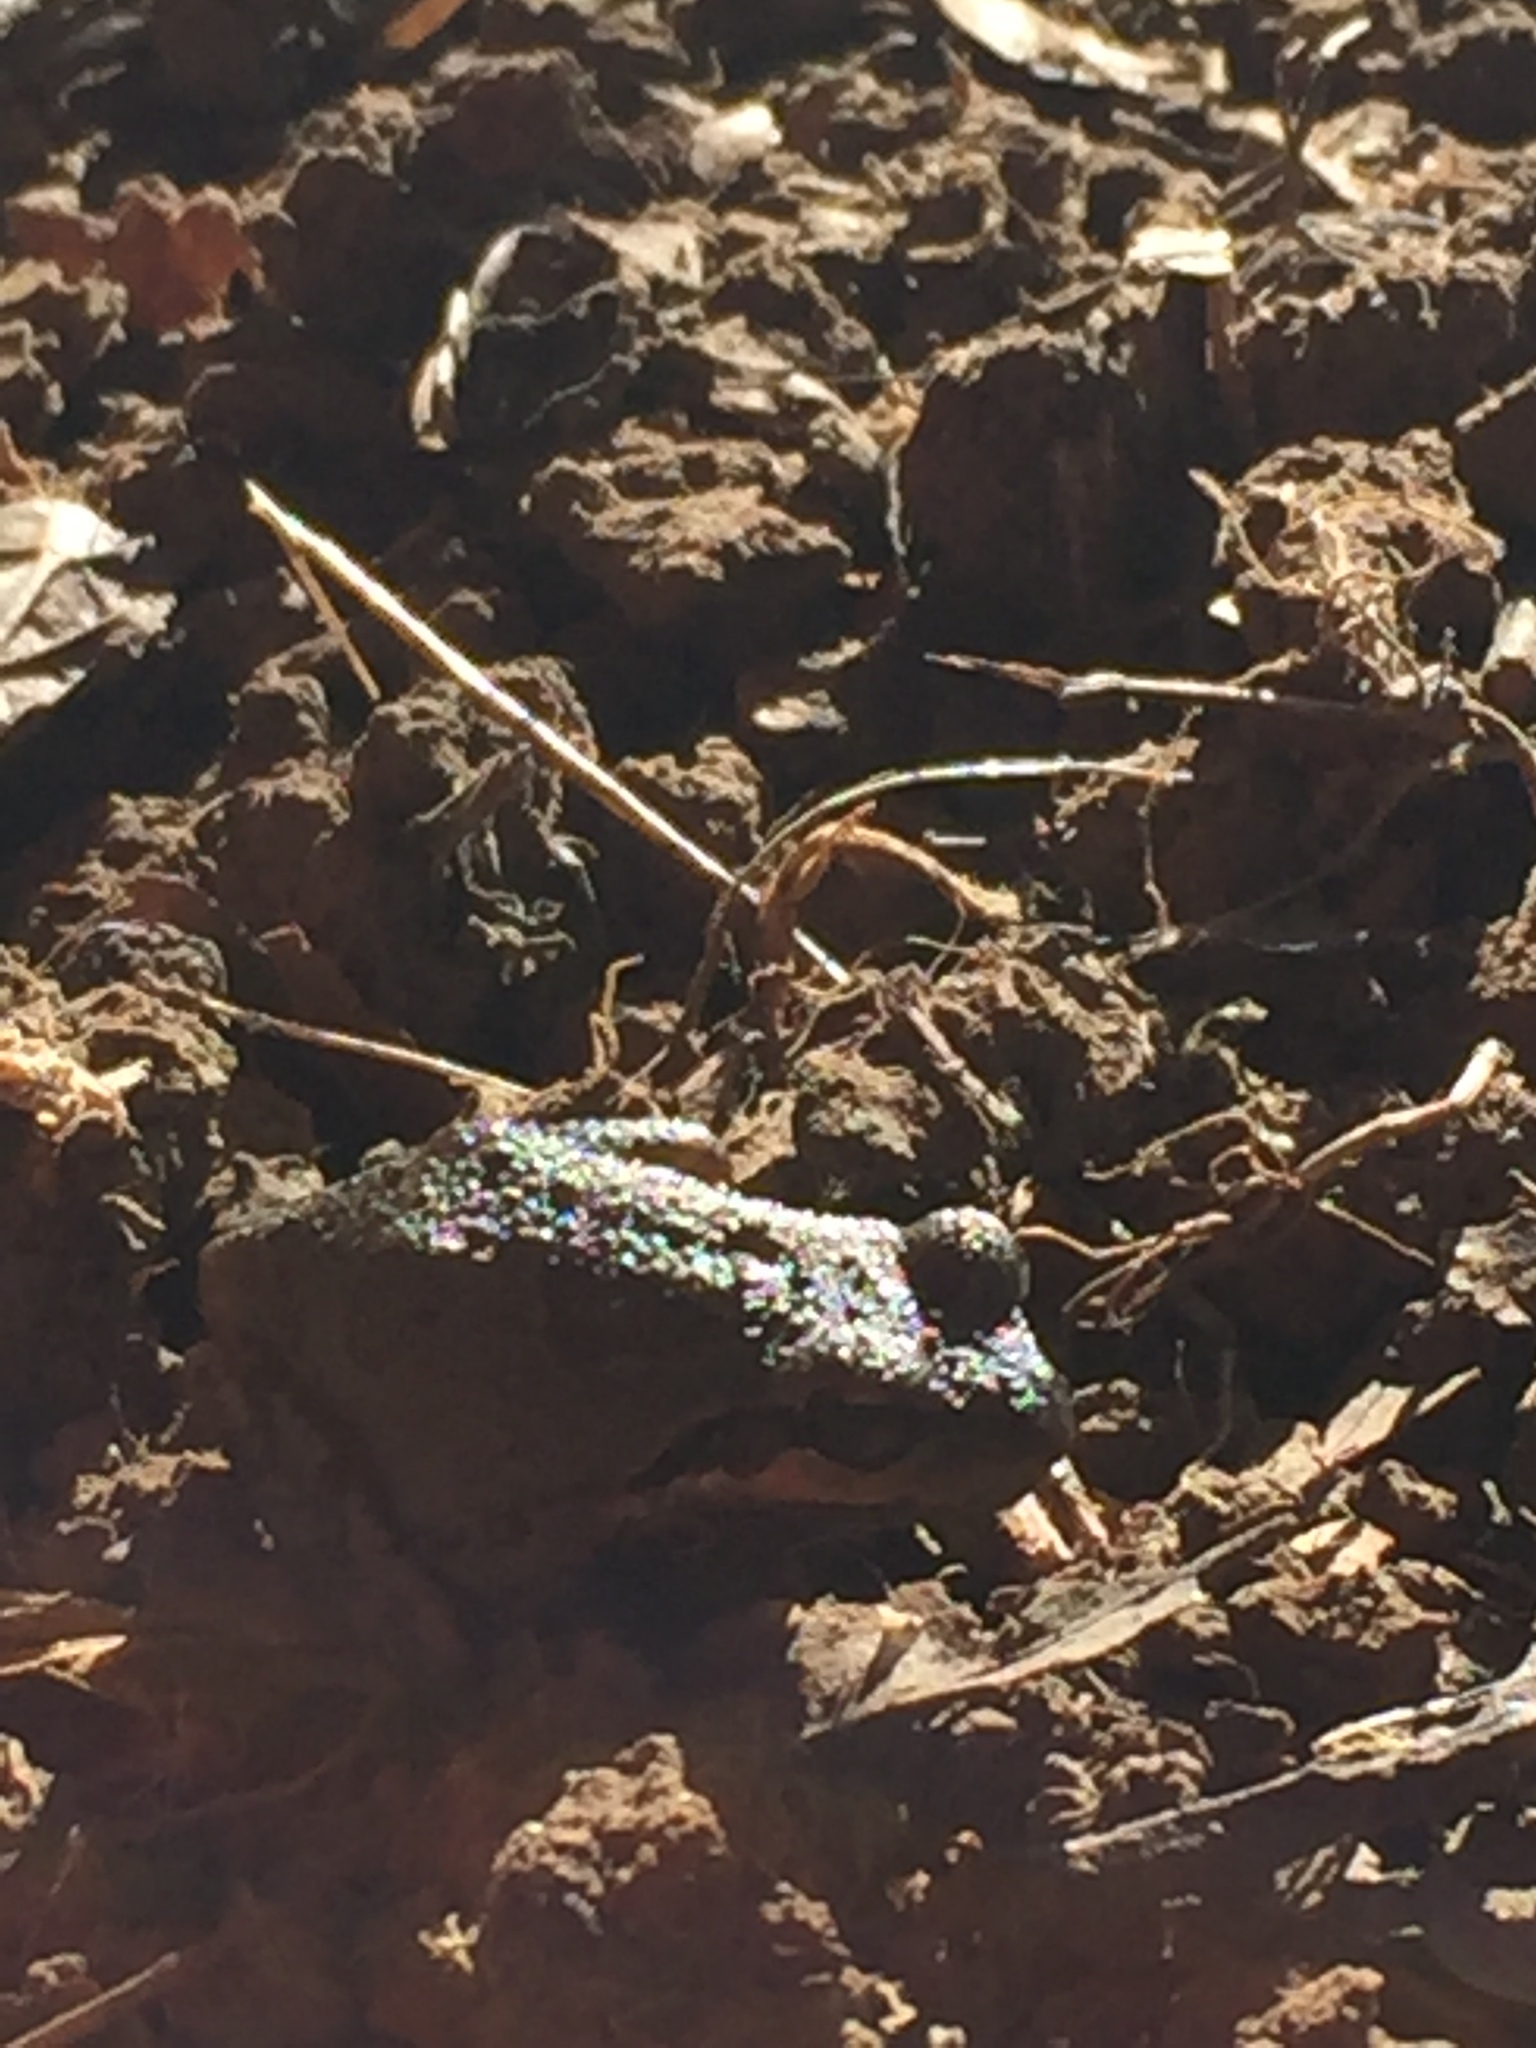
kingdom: Animalia
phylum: Chordata
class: Amphibia
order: Anura
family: Hylidae
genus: Pseudacris
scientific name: Pseudacris regilla
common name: Pacific chorus frog
